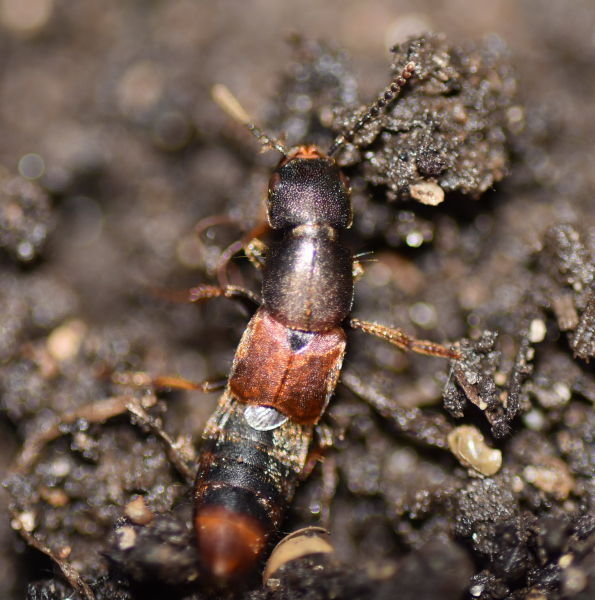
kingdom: Animalia
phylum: Arthropoda
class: Insecta
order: Coleoptera
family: Staphylinidae
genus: Platydracus
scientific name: Platydracus cinnamopterus
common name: Cinnamon rove beetle
